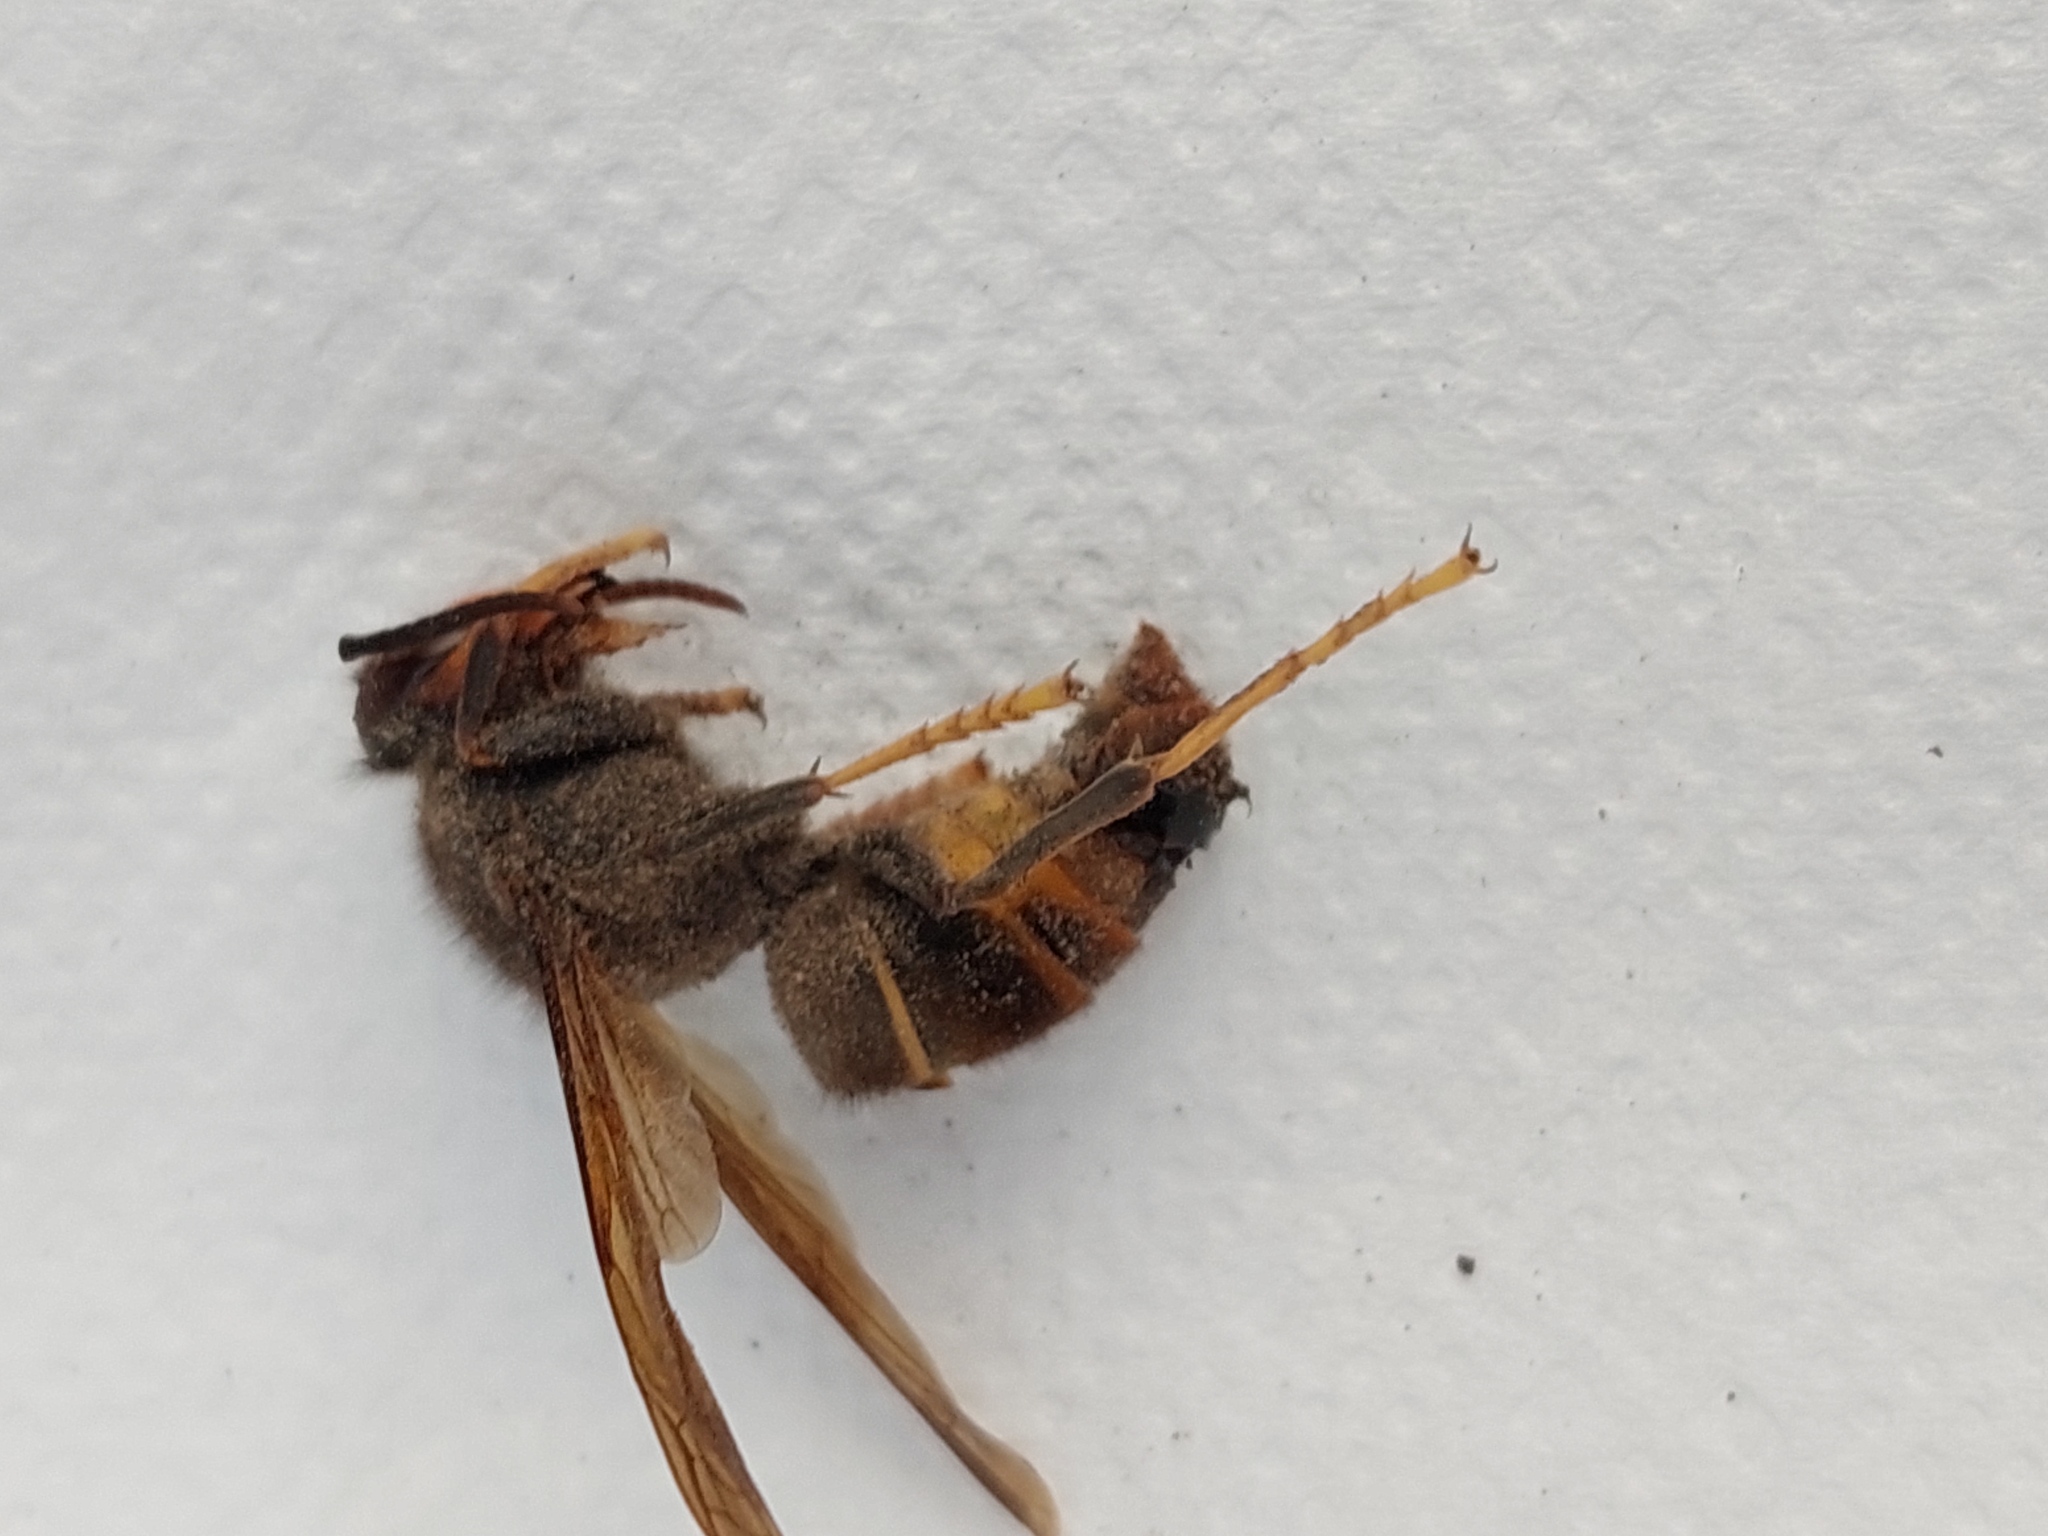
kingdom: Animalia
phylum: Arthropoda
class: Insecta
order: Hymenoptera
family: Vespidae
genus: Vespa
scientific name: Vespa velutina
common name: Asian hornet
